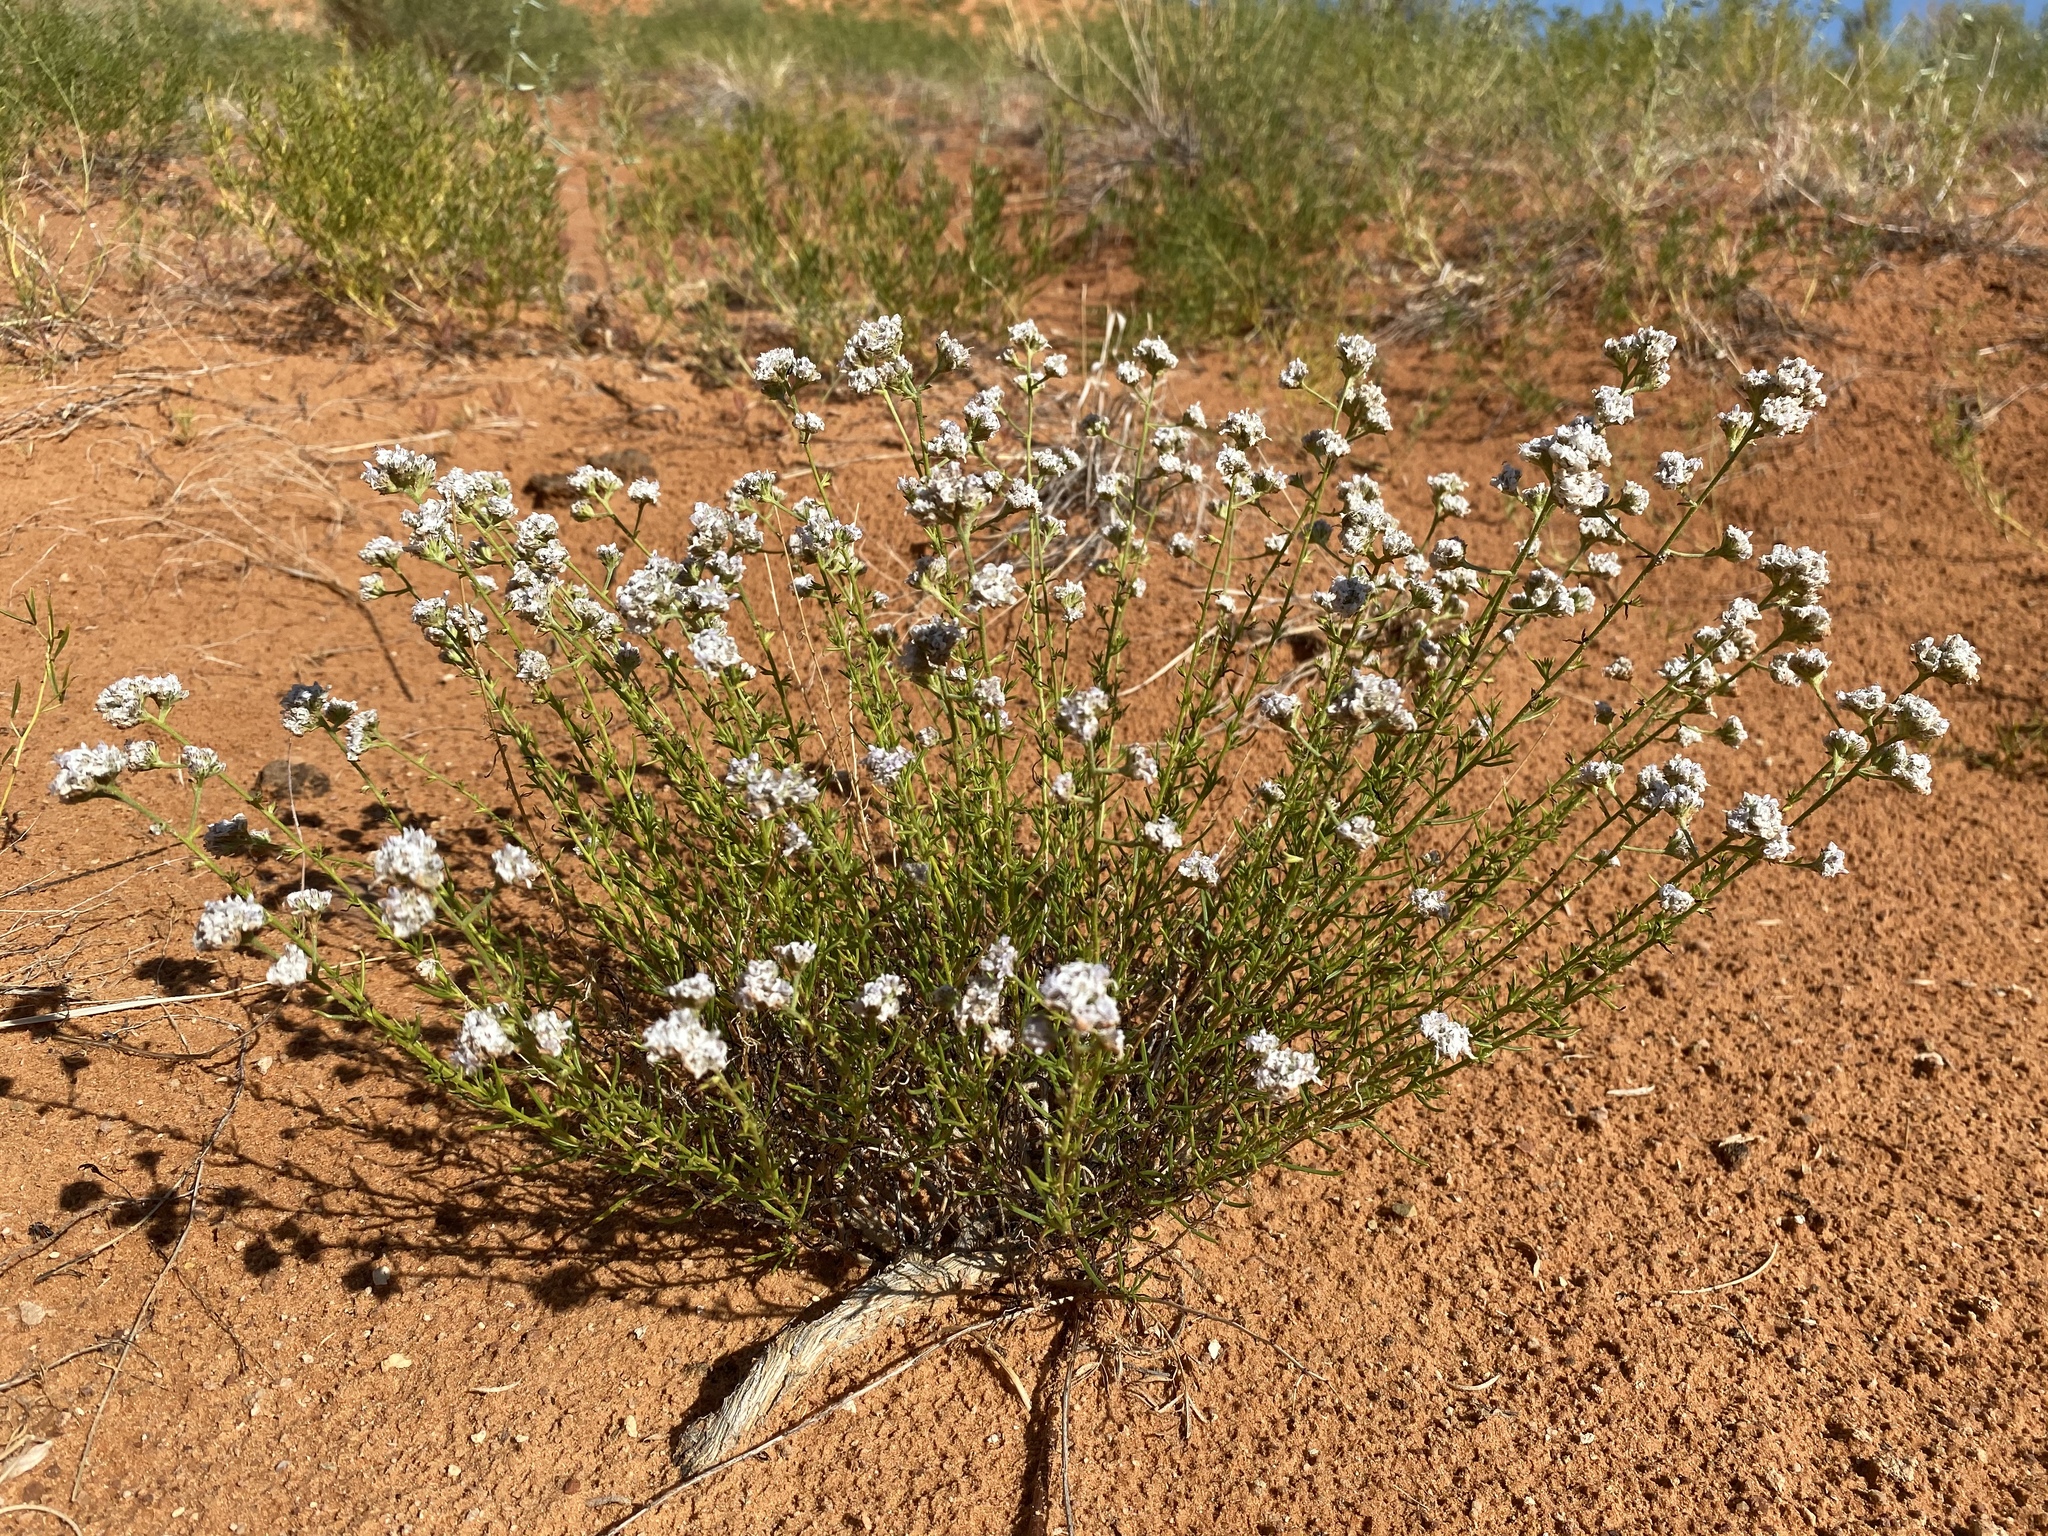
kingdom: Plantae
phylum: Tracheophyta
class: Magnoliopsida
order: Ericales
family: Polemoniaceae
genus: Ipomopsis
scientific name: Ipomopsis congesta
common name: Ball-head gilia
